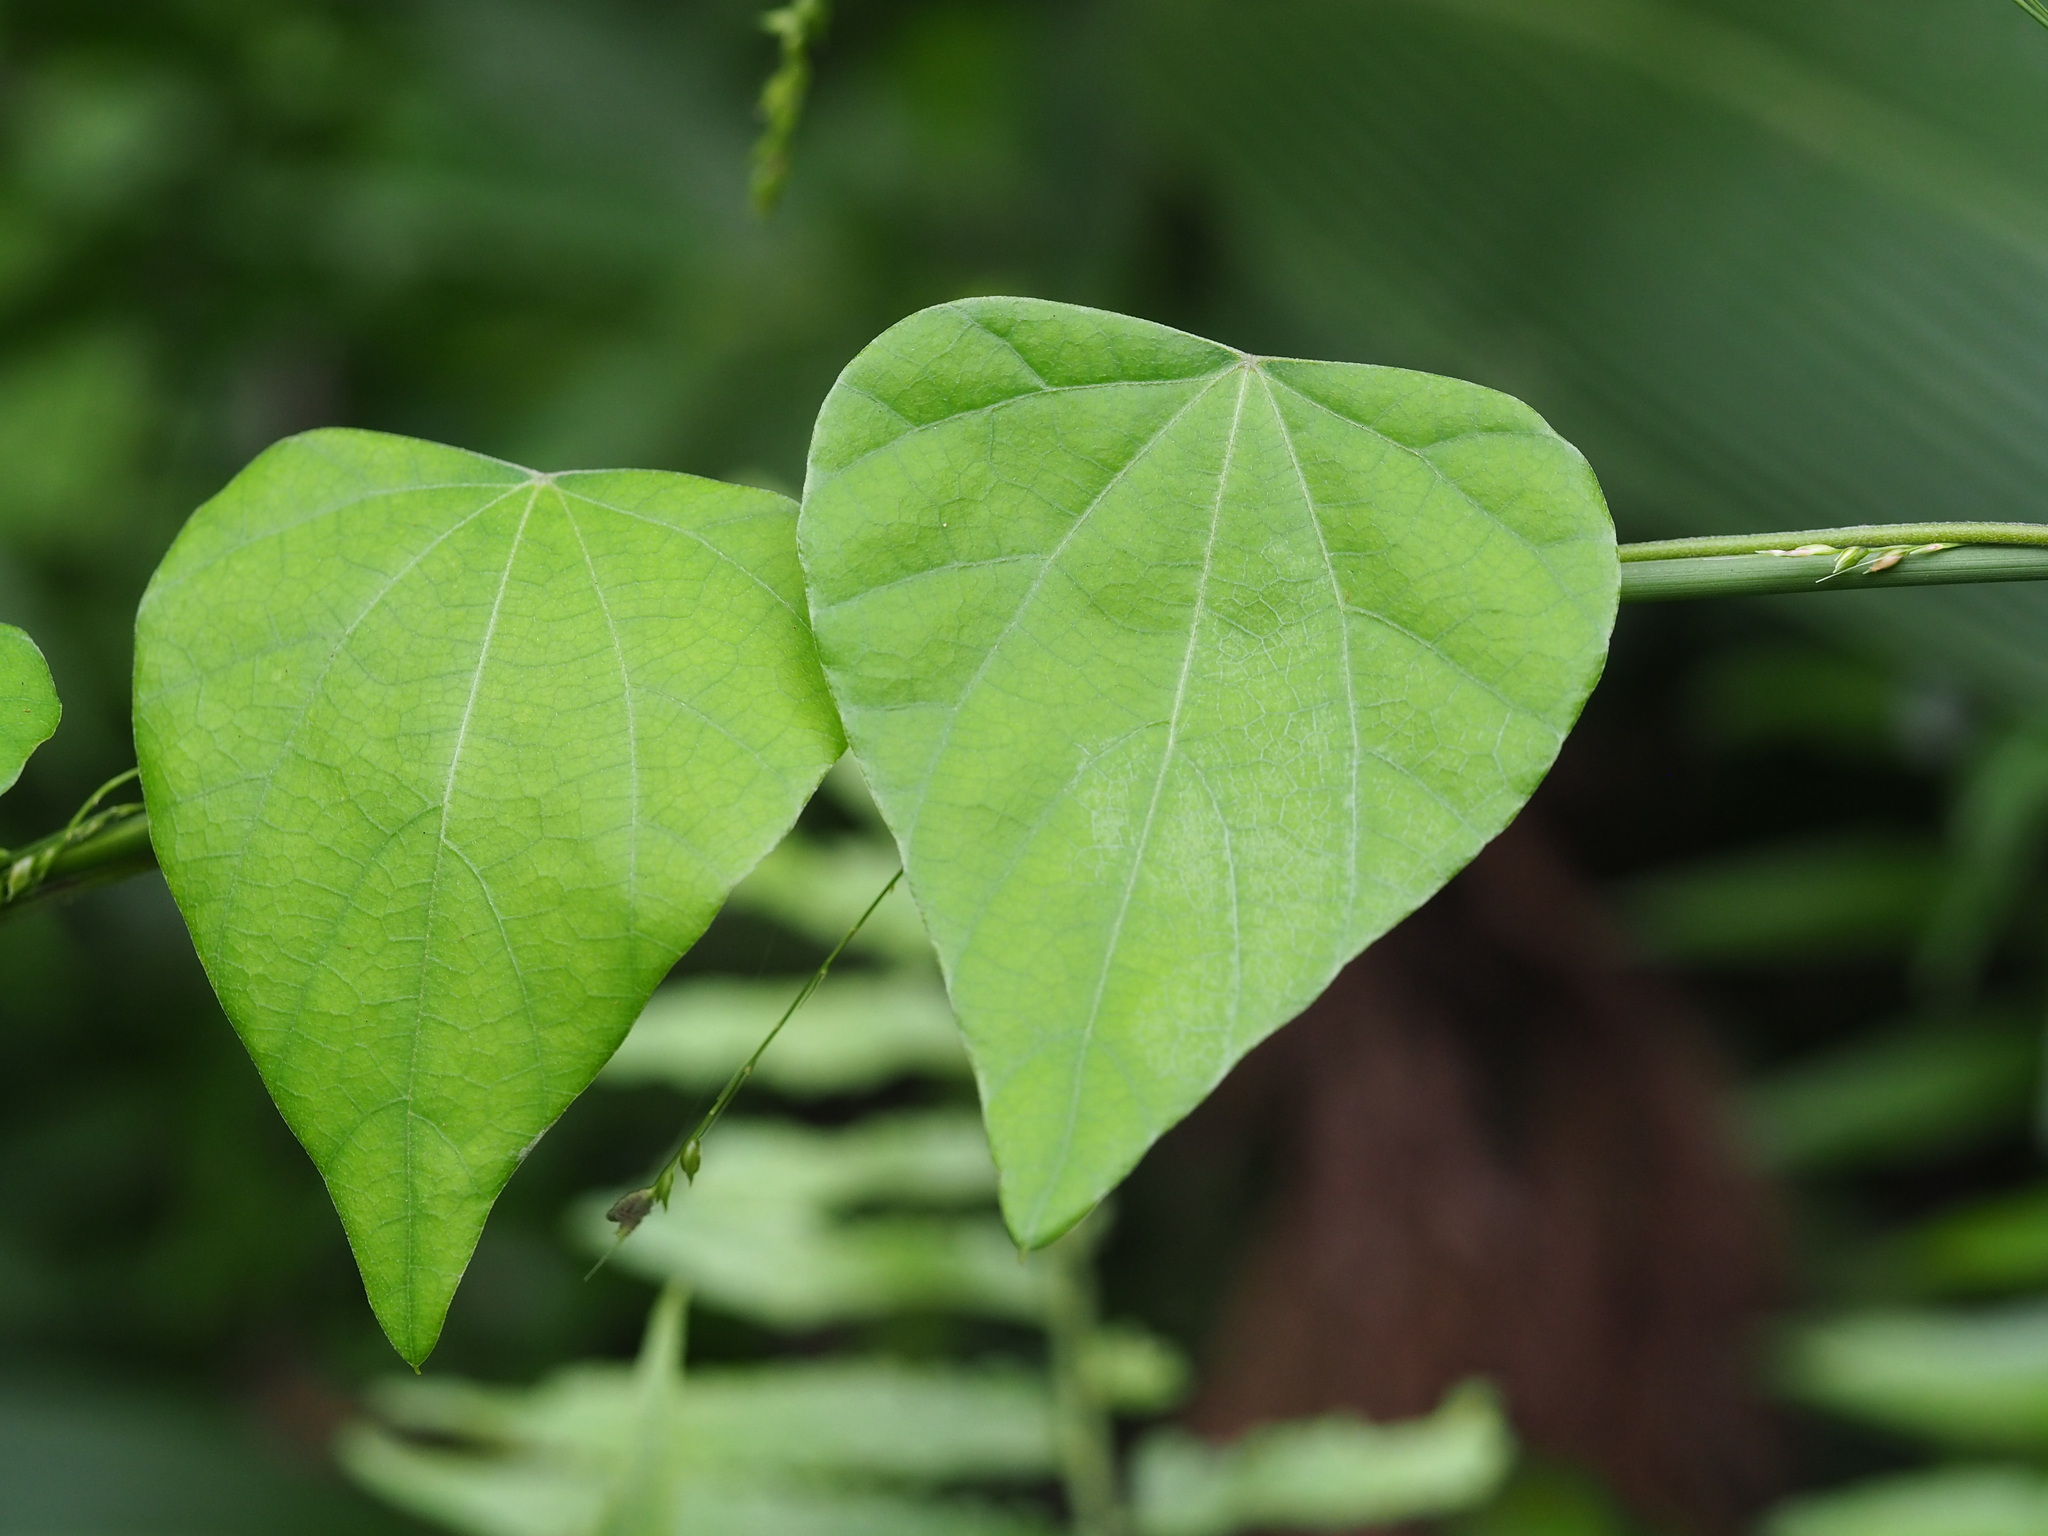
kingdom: Plantae
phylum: Tracheophyta
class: Magnoliopsida
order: Ranunculales
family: Menispermaceae
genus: Pericampylus
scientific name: Pericampylus glaucus
